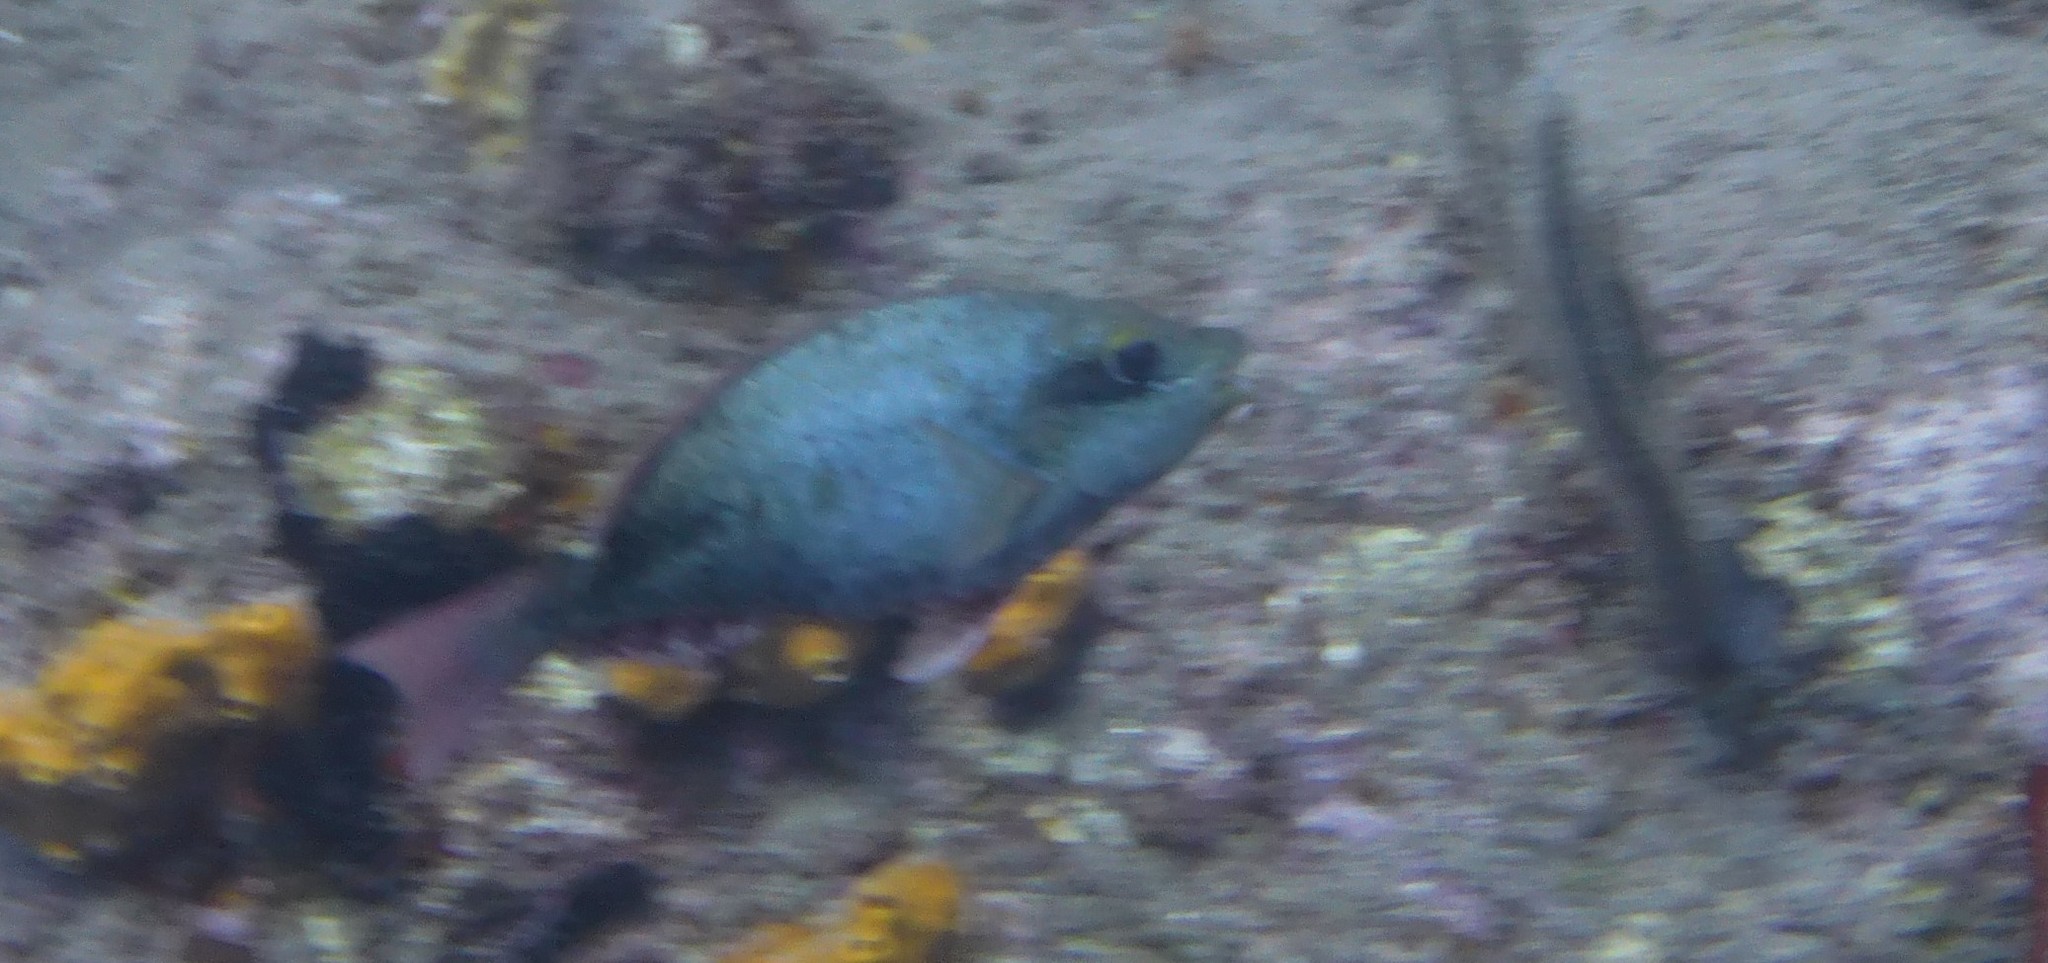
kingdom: Animalia
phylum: Chordata
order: Perciformes
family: Scaridae
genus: Sparisoma
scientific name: Sparisoma aurofrenatum
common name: Redband parrotfish
